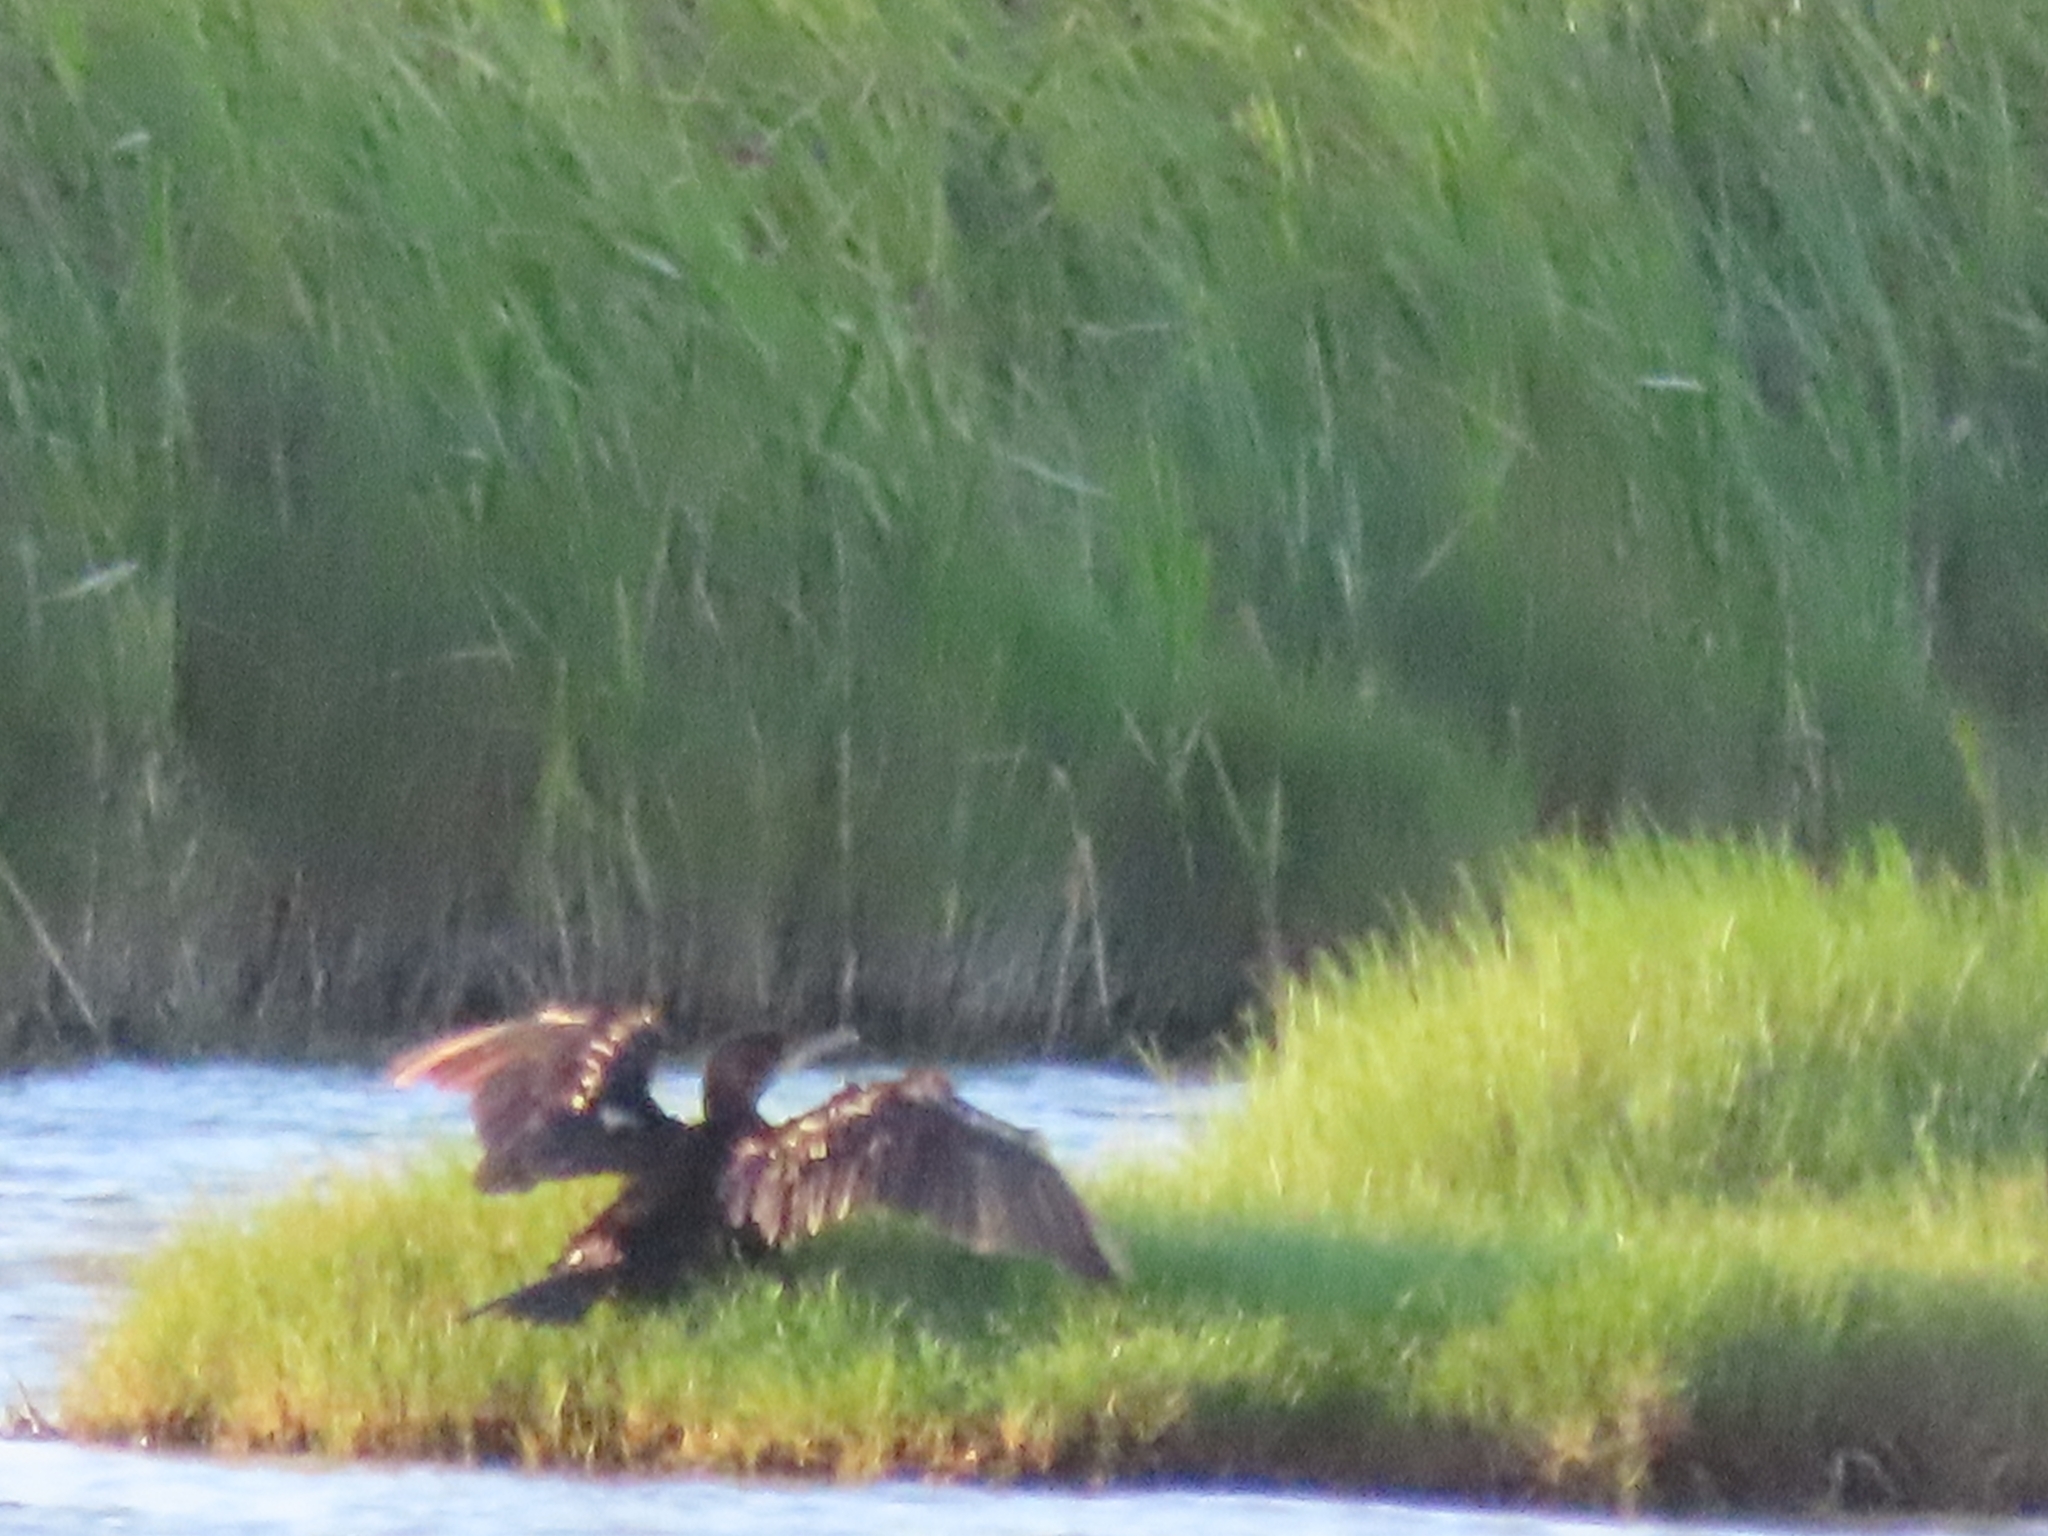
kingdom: Animalia
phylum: Chordata
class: Aves
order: Suliformes
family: Phalacrocoracidae
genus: Phalacrocorax
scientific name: Phalacrocorax brasilianus
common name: Neotropic cormorant
